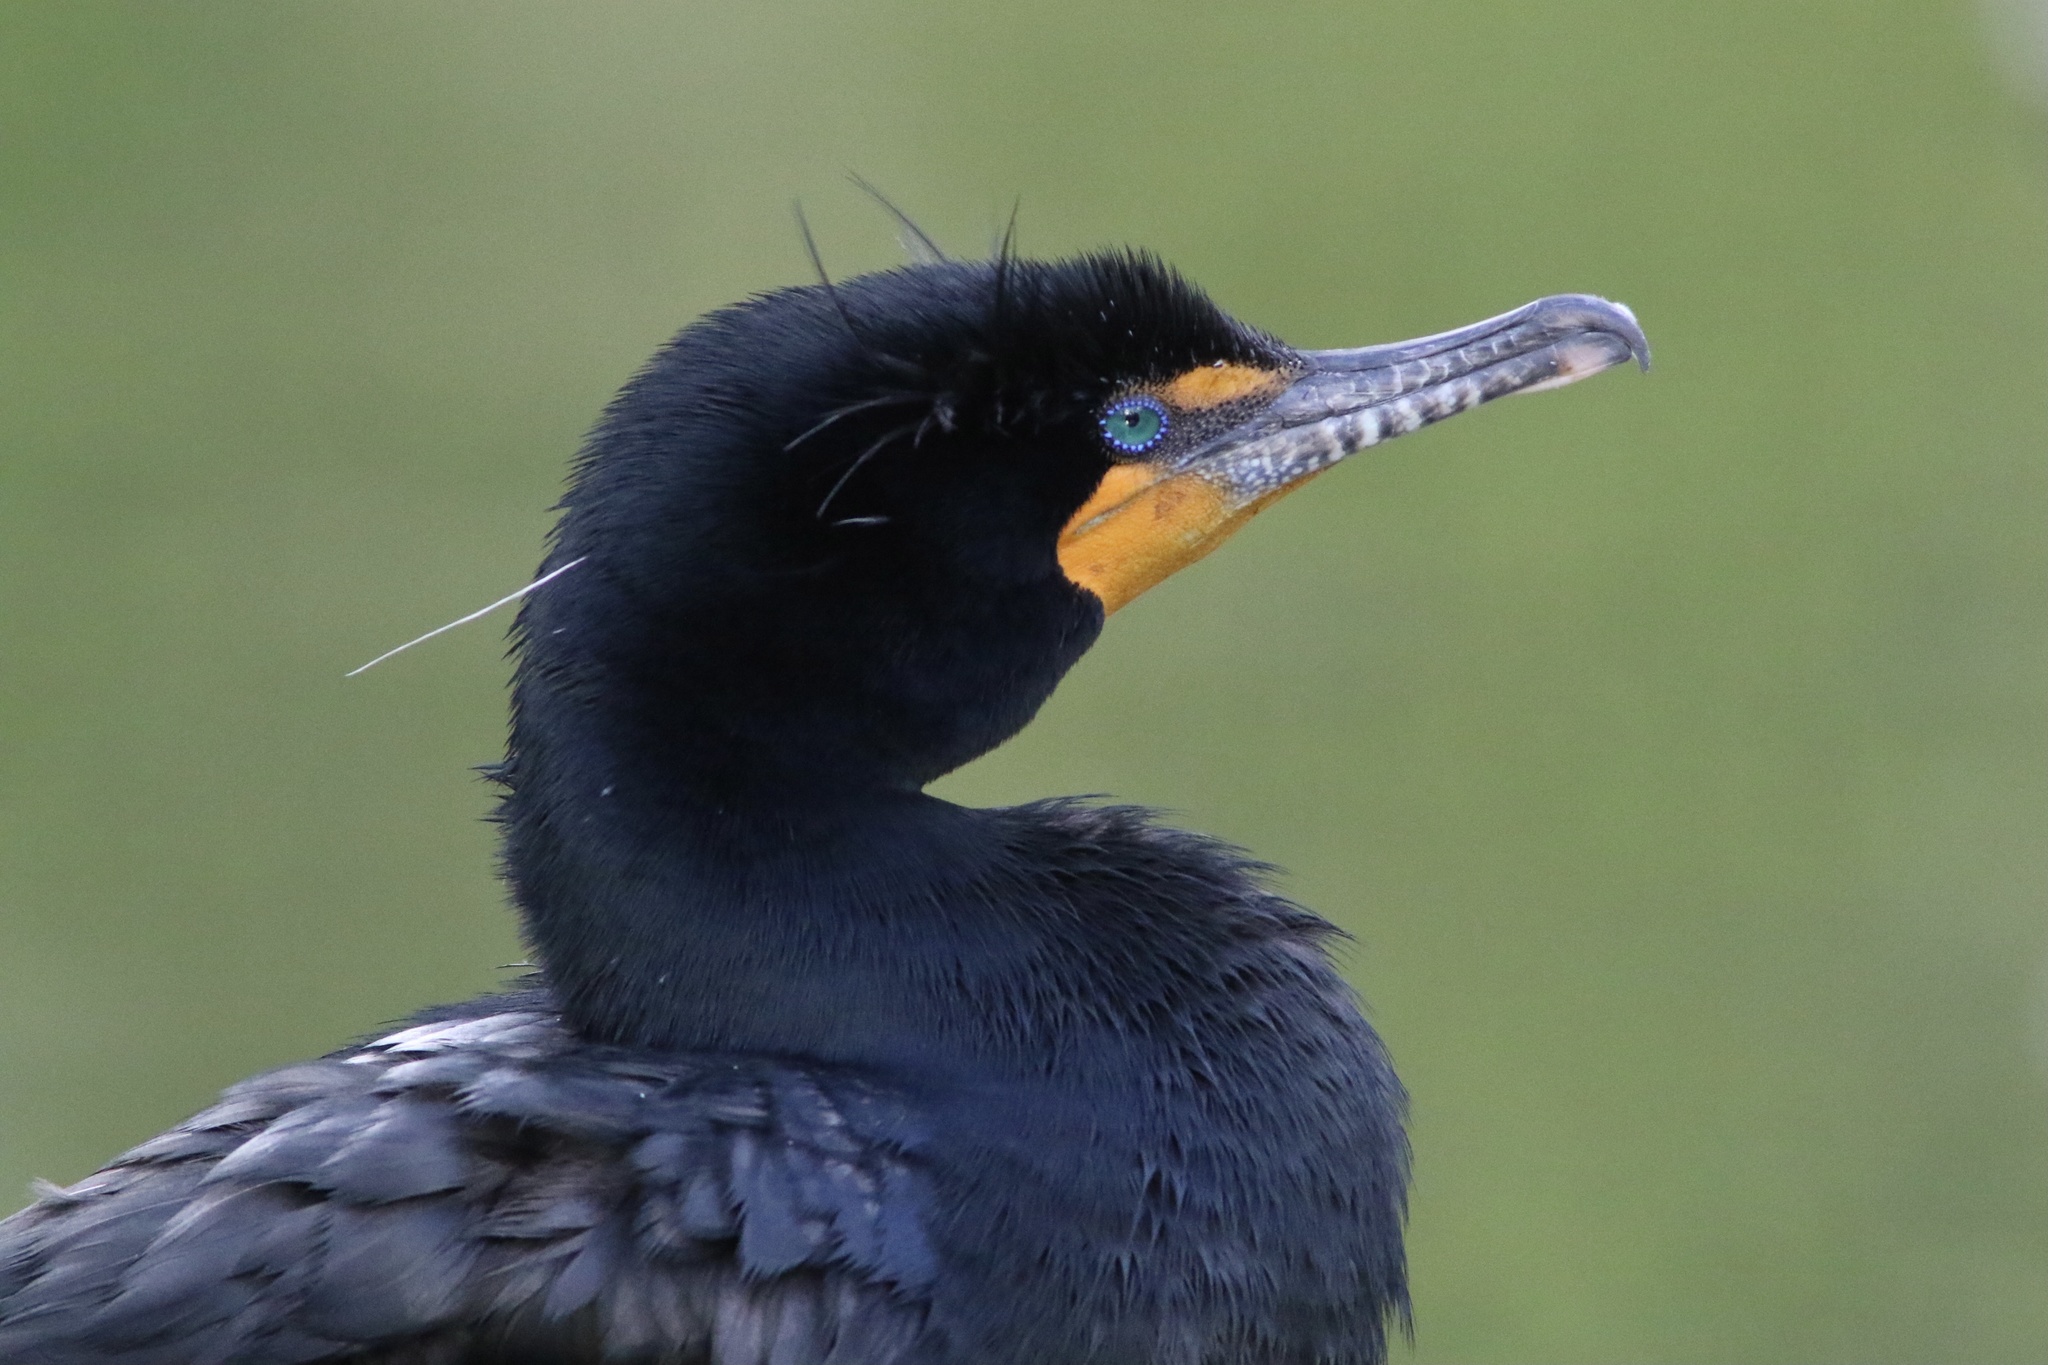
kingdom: Animalia
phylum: Chordata
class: Aves
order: Suliformes
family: Phalacrocoracidae
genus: Phalacrocorax
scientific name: Phalacrocorax auritus
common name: Double-crested cormorant
